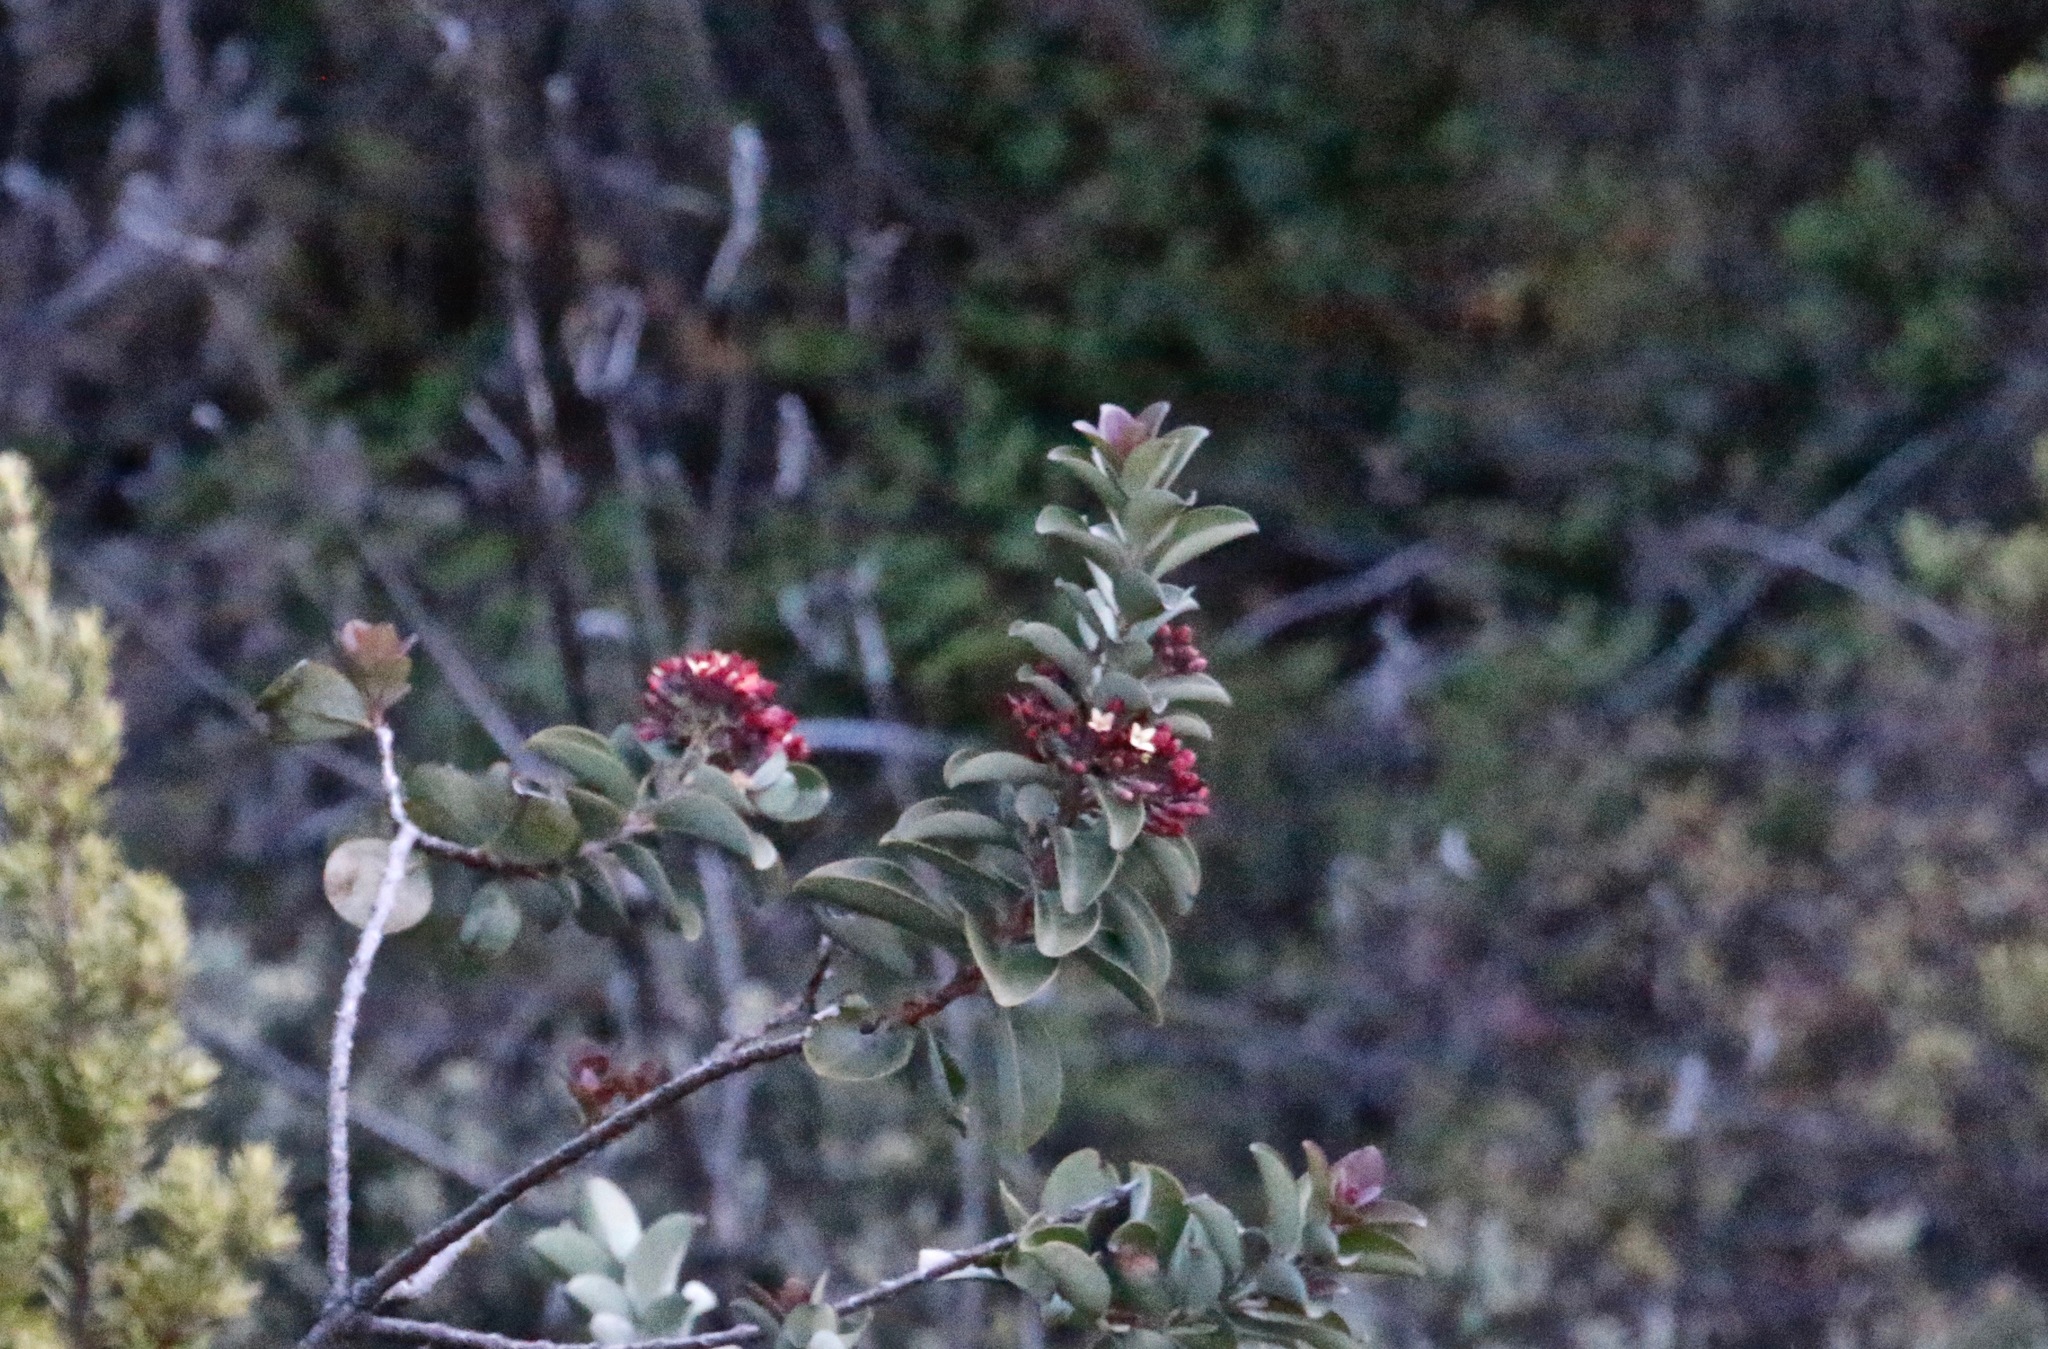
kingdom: Plantae
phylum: Tracheophyta
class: Magnoliopsida
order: Santalales
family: Santalaceae
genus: Santalum
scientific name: Santalum haleakalae
